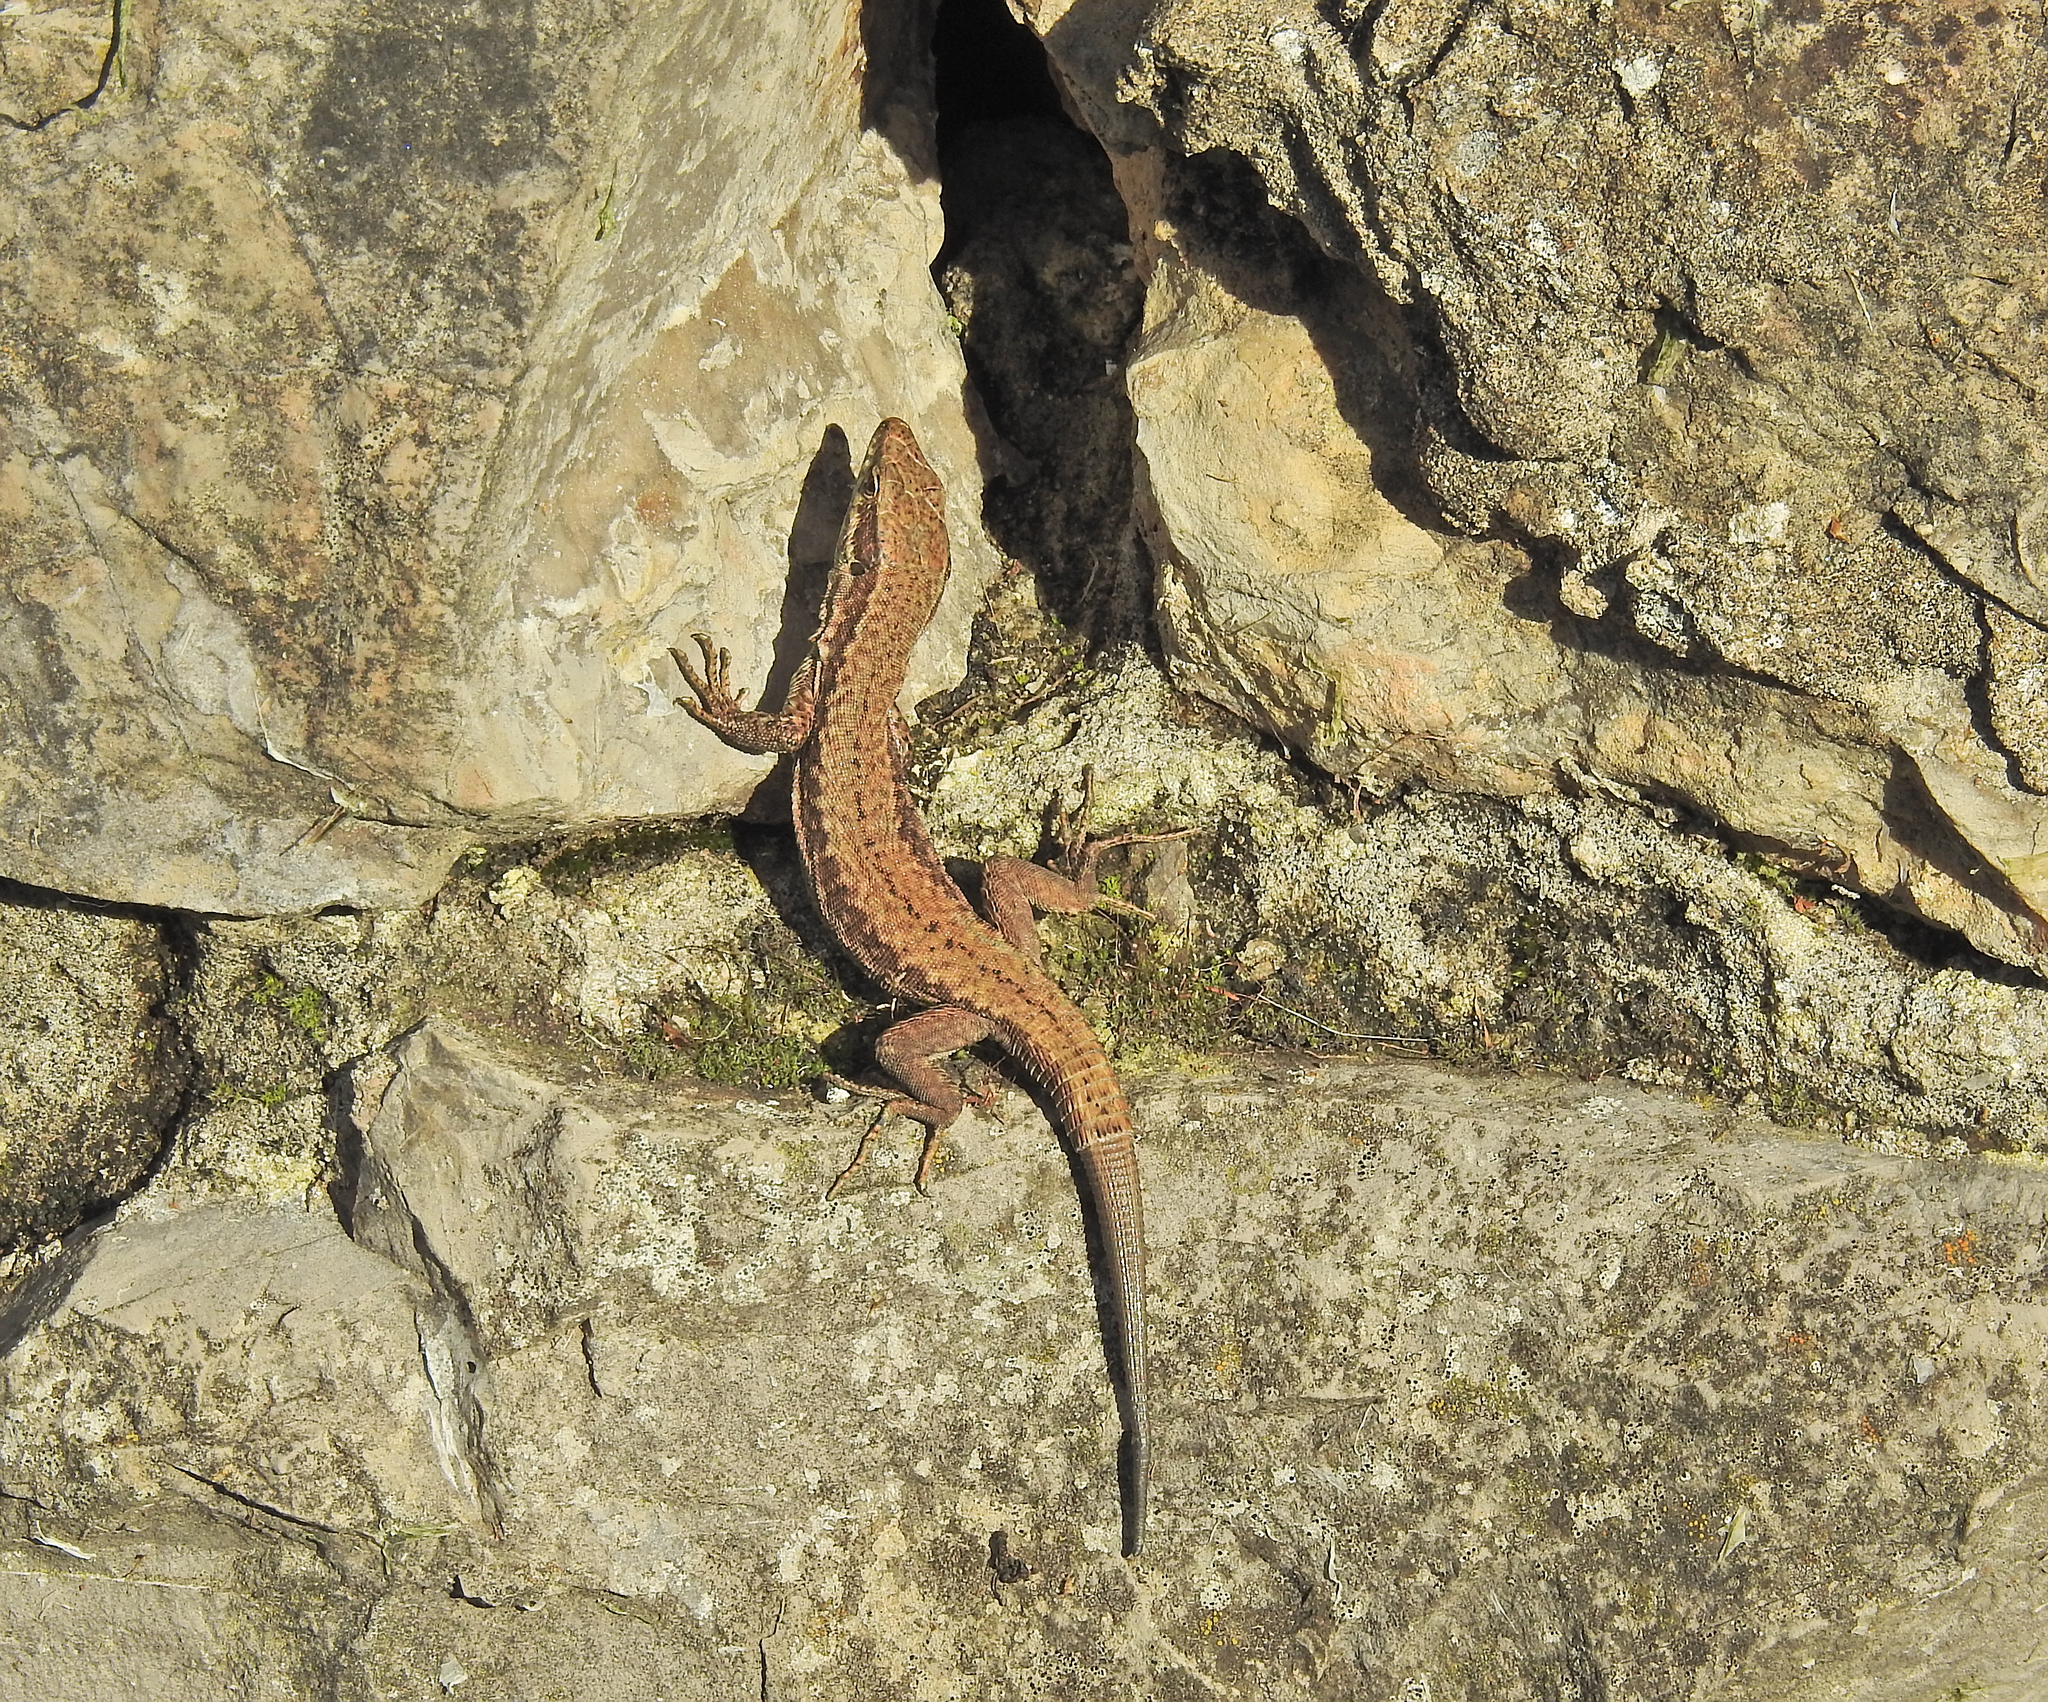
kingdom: Animalia
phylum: Chordata
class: Squamata
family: Lacertidae
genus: Podarcis
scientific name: Podarcis muralis
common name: Common wall lizard
